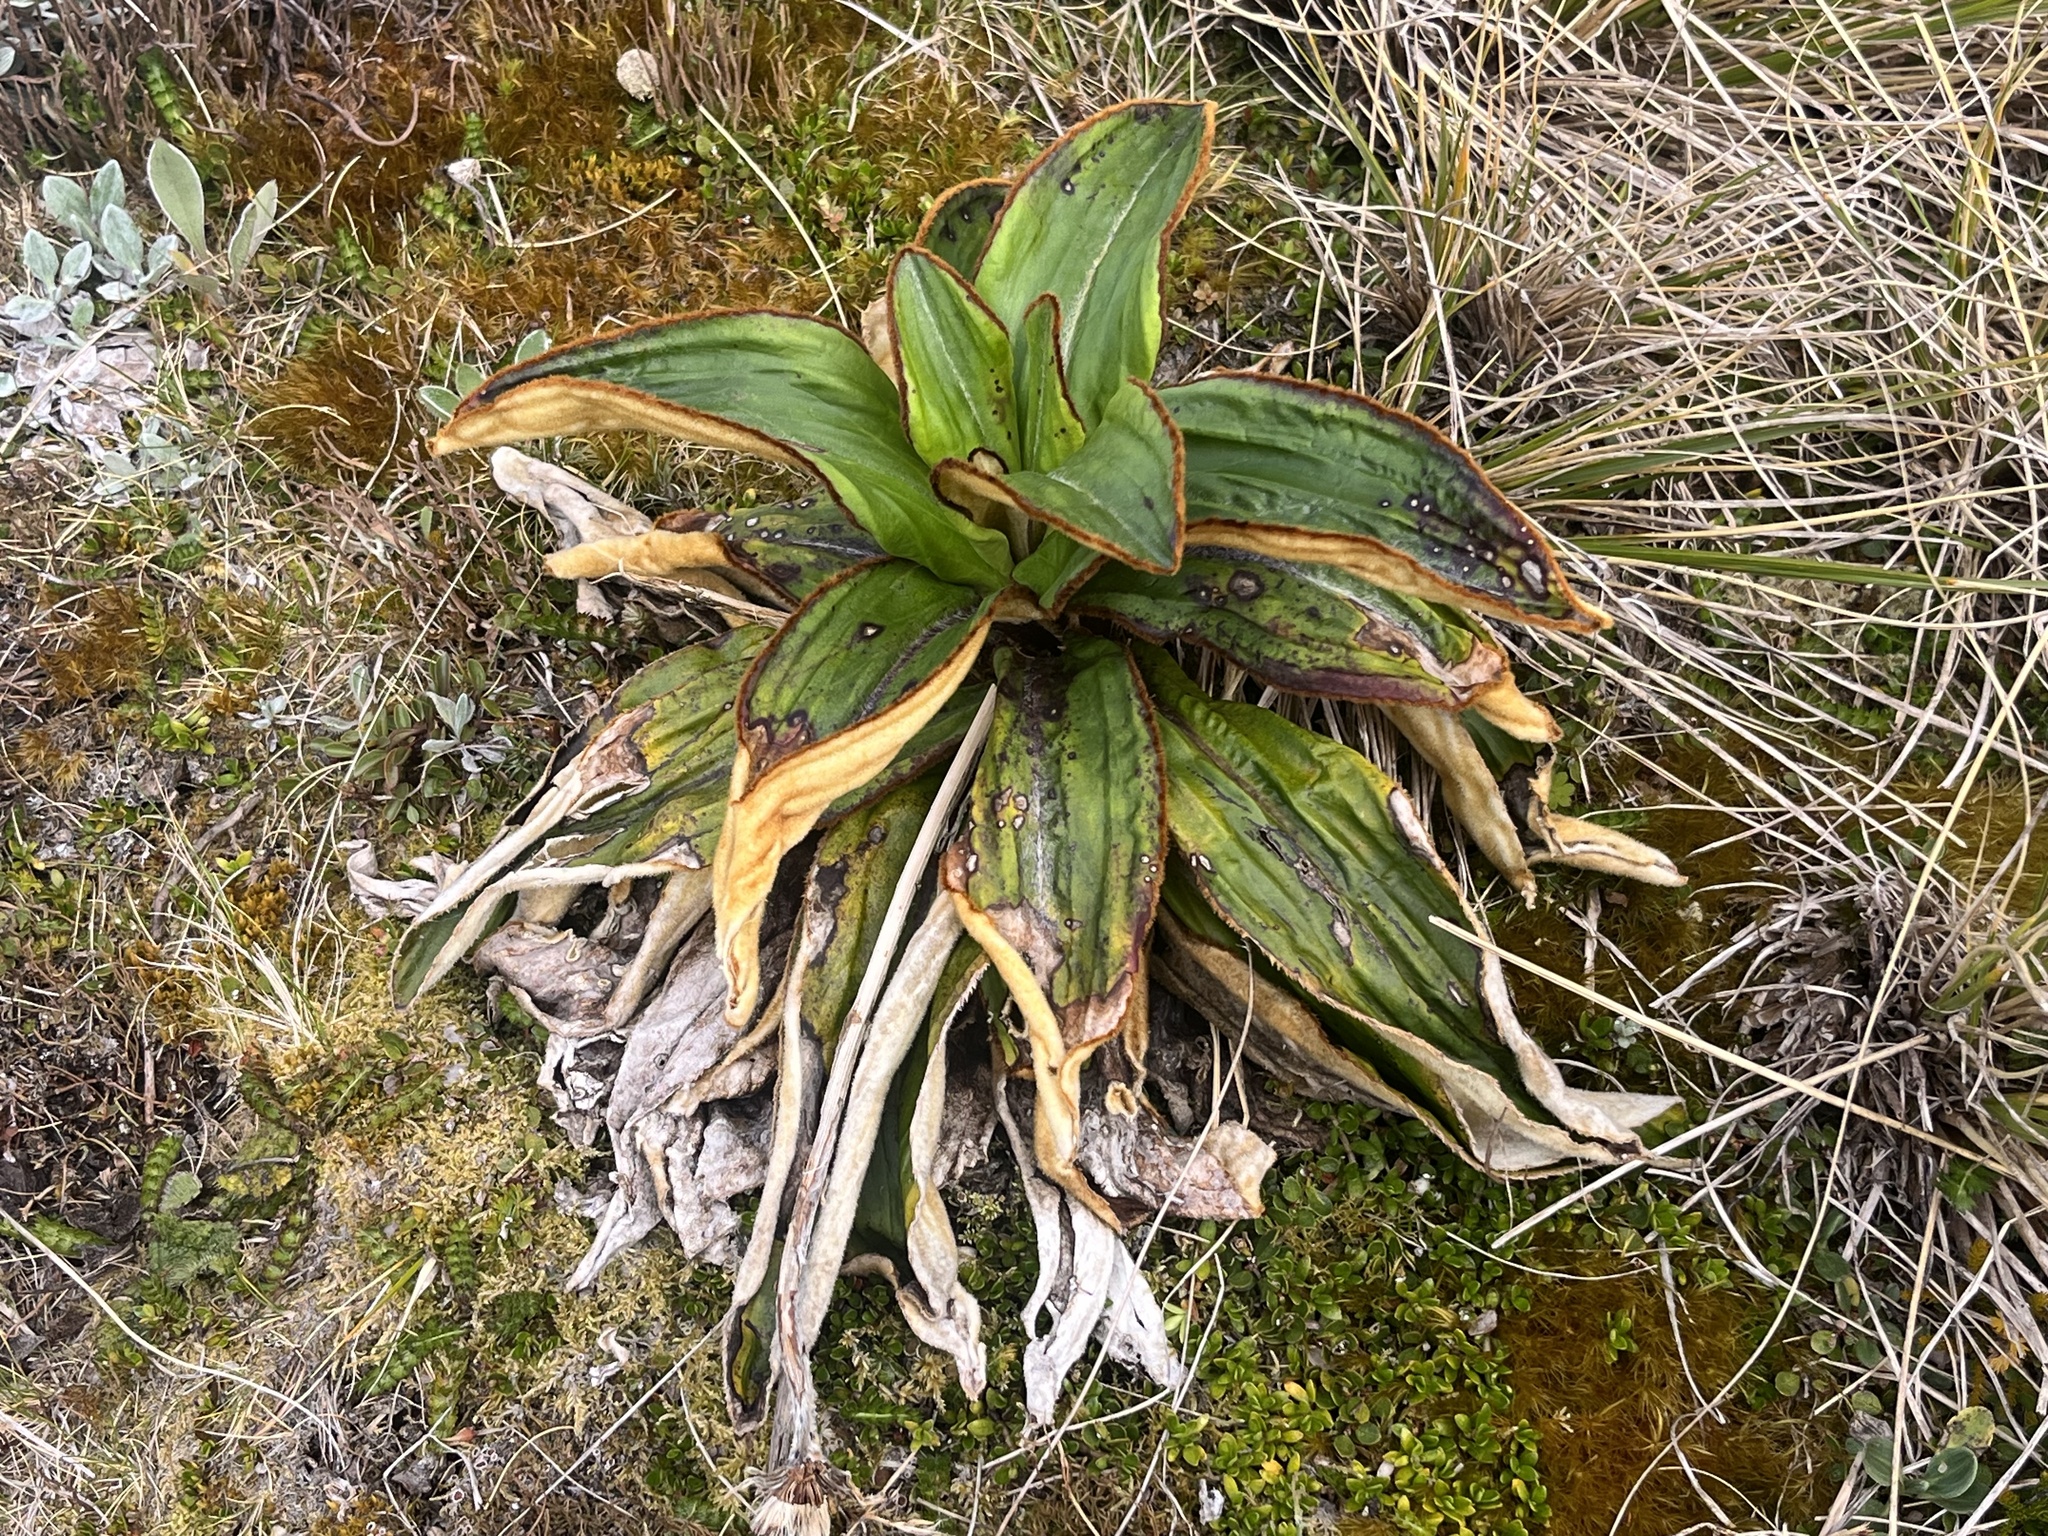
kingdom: Plantae
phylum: Tracheophyta
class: Magnoliopsida
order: Asterales
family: Asteraceae
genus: Celmisia
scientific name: Celmisia traversii
